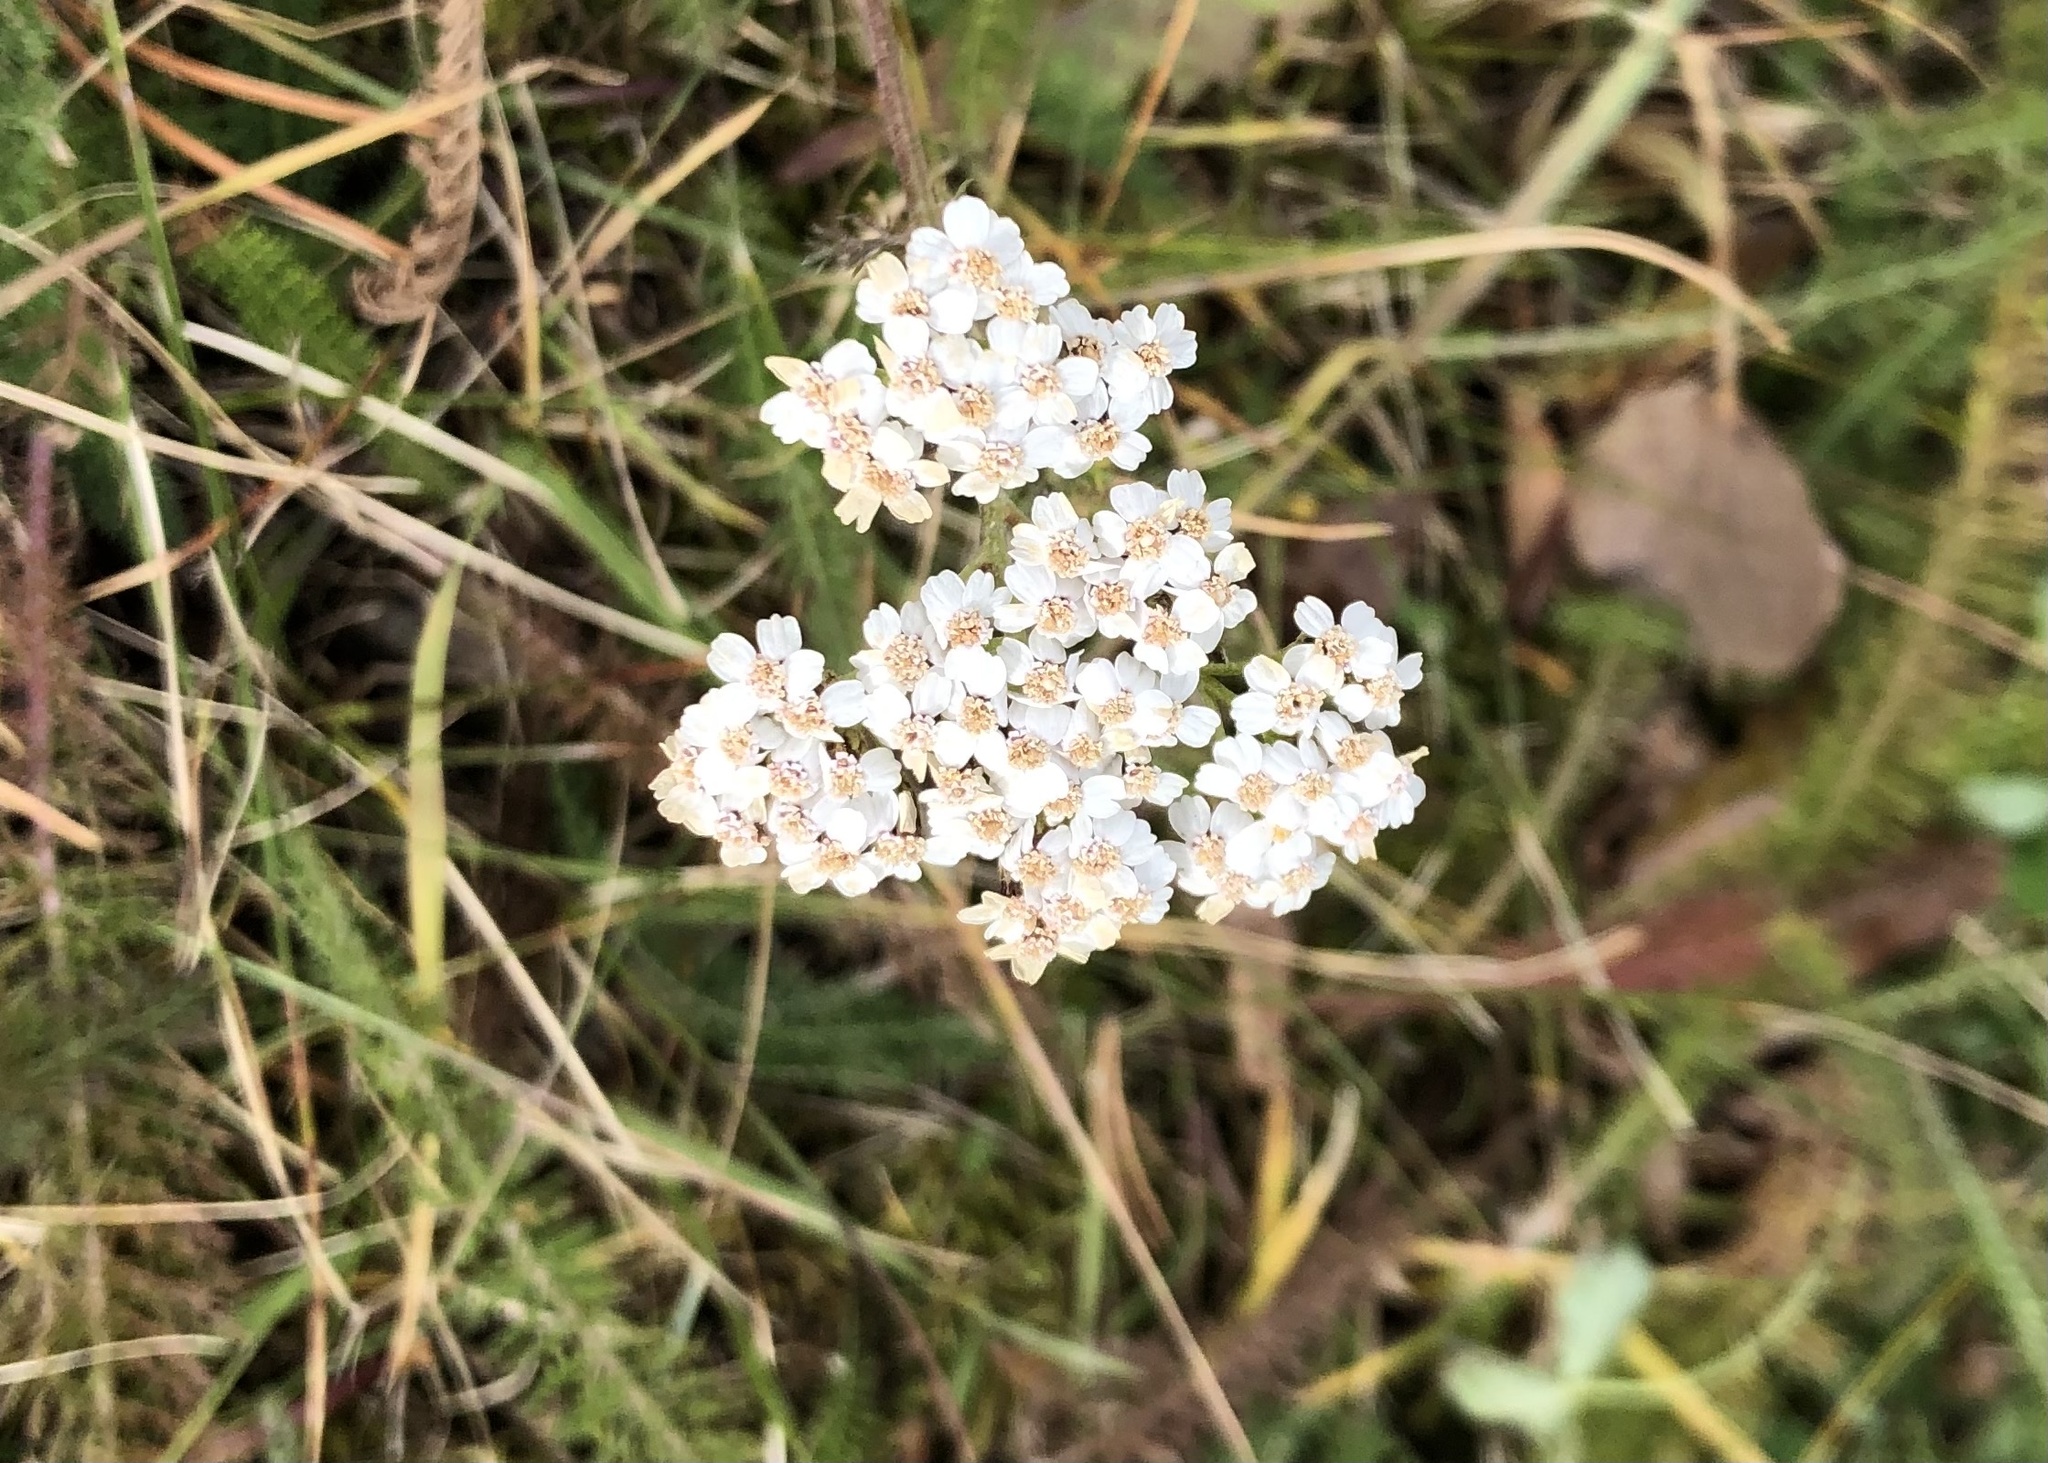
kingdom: Plantae
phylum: Tracheophyta
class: Magnoliopsida
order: Asterales
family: Asteraceae
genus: Achillea
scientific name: Achillea millefolium
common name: Yarrow
